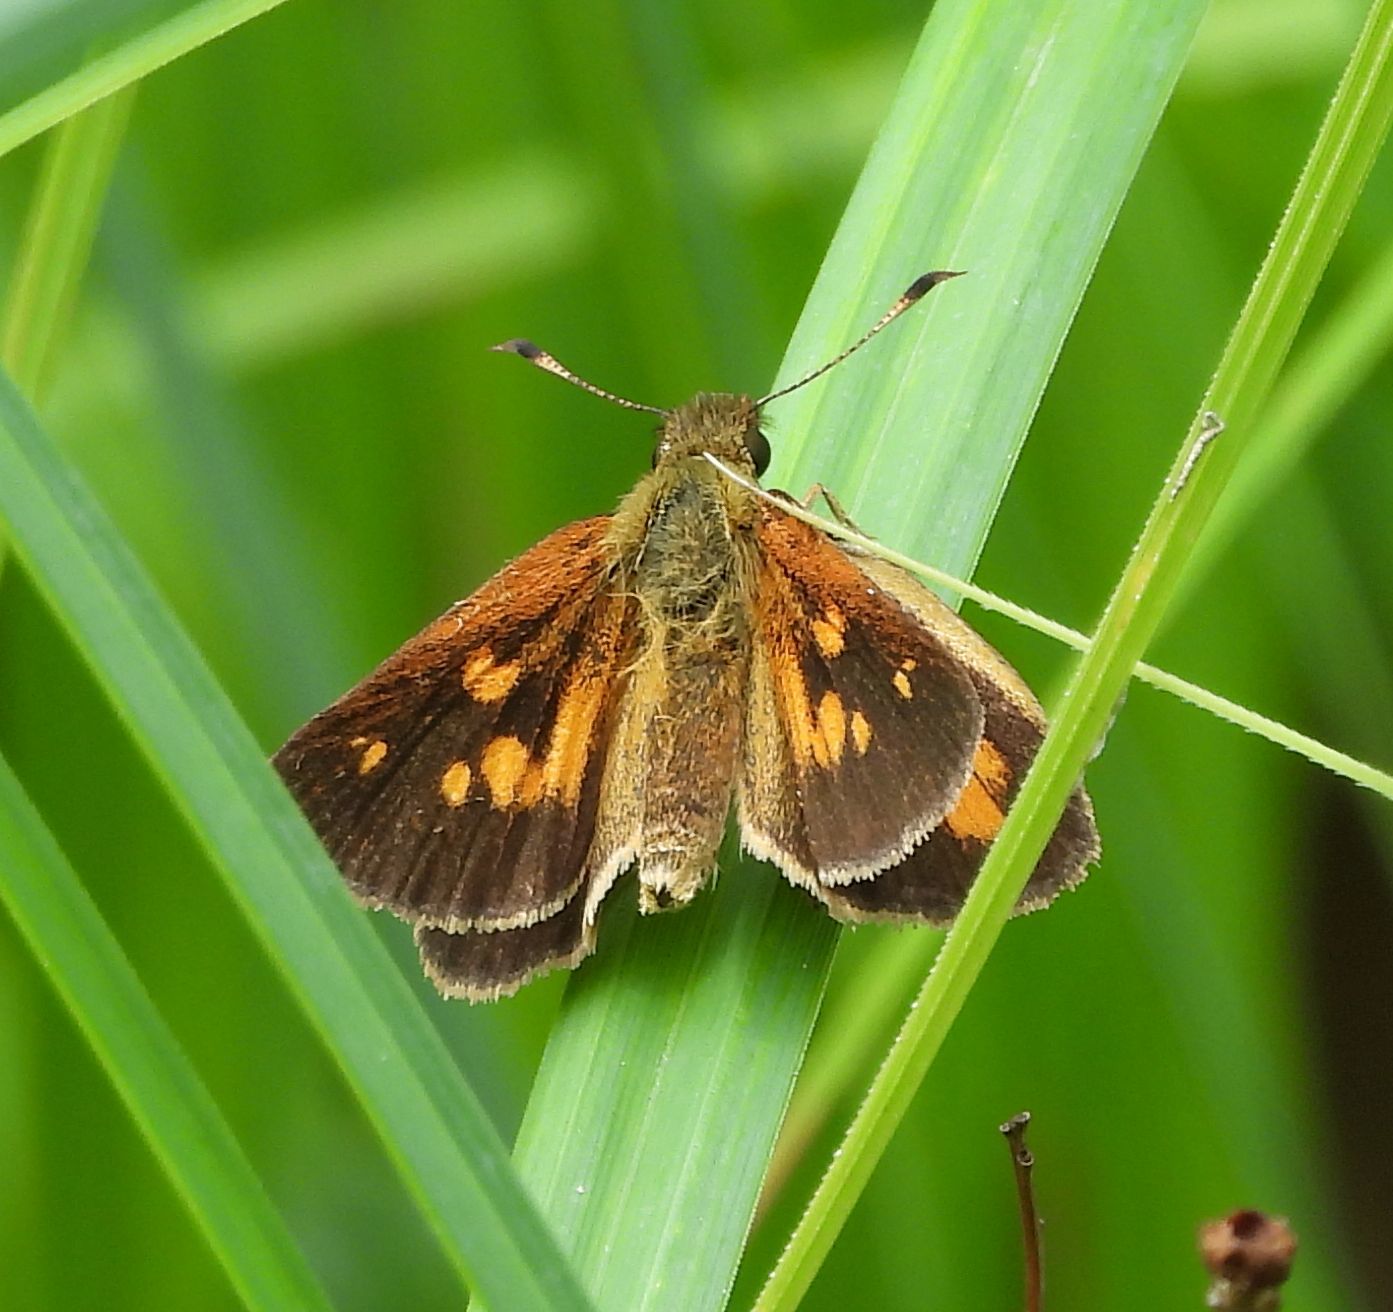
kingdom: Animalia
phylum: Arthropoda
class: Insecta
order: Lepidoptera
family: Hesperiidae
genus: Poanes
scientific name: Poanes viator
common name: Broad-winged skipper
